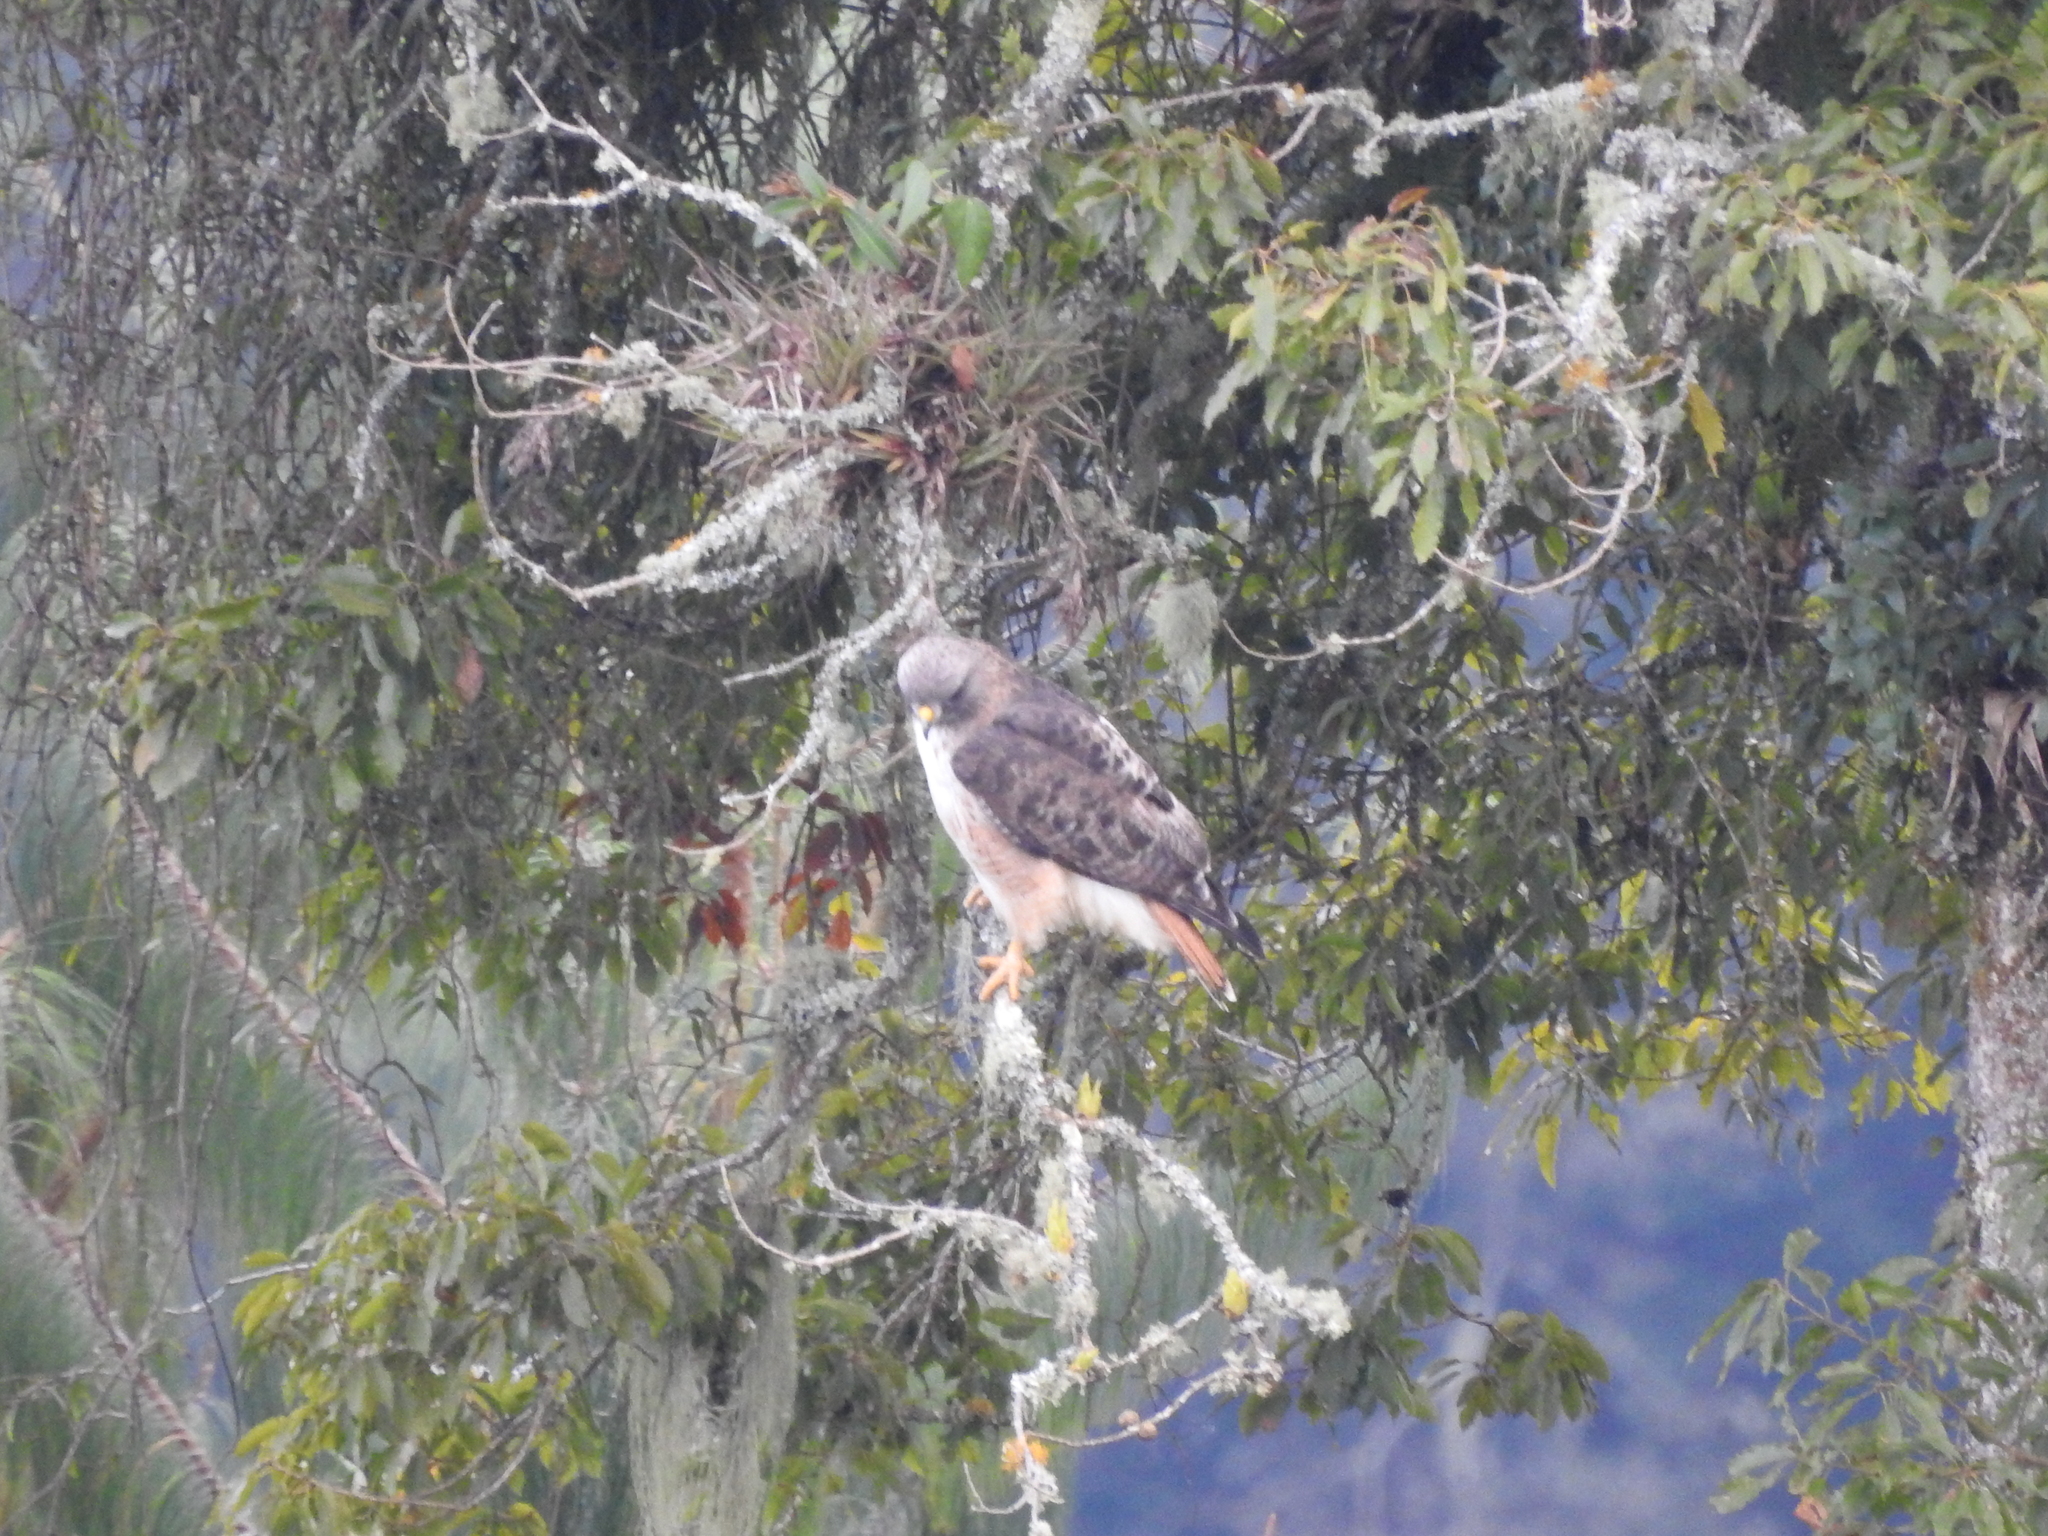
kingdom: Animalia
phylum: Chordata
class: Aves
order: Accipitriformes
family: Accipitridae
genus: Buteo
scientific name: Buteo jamaicensis
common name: Red-tailed hawk
